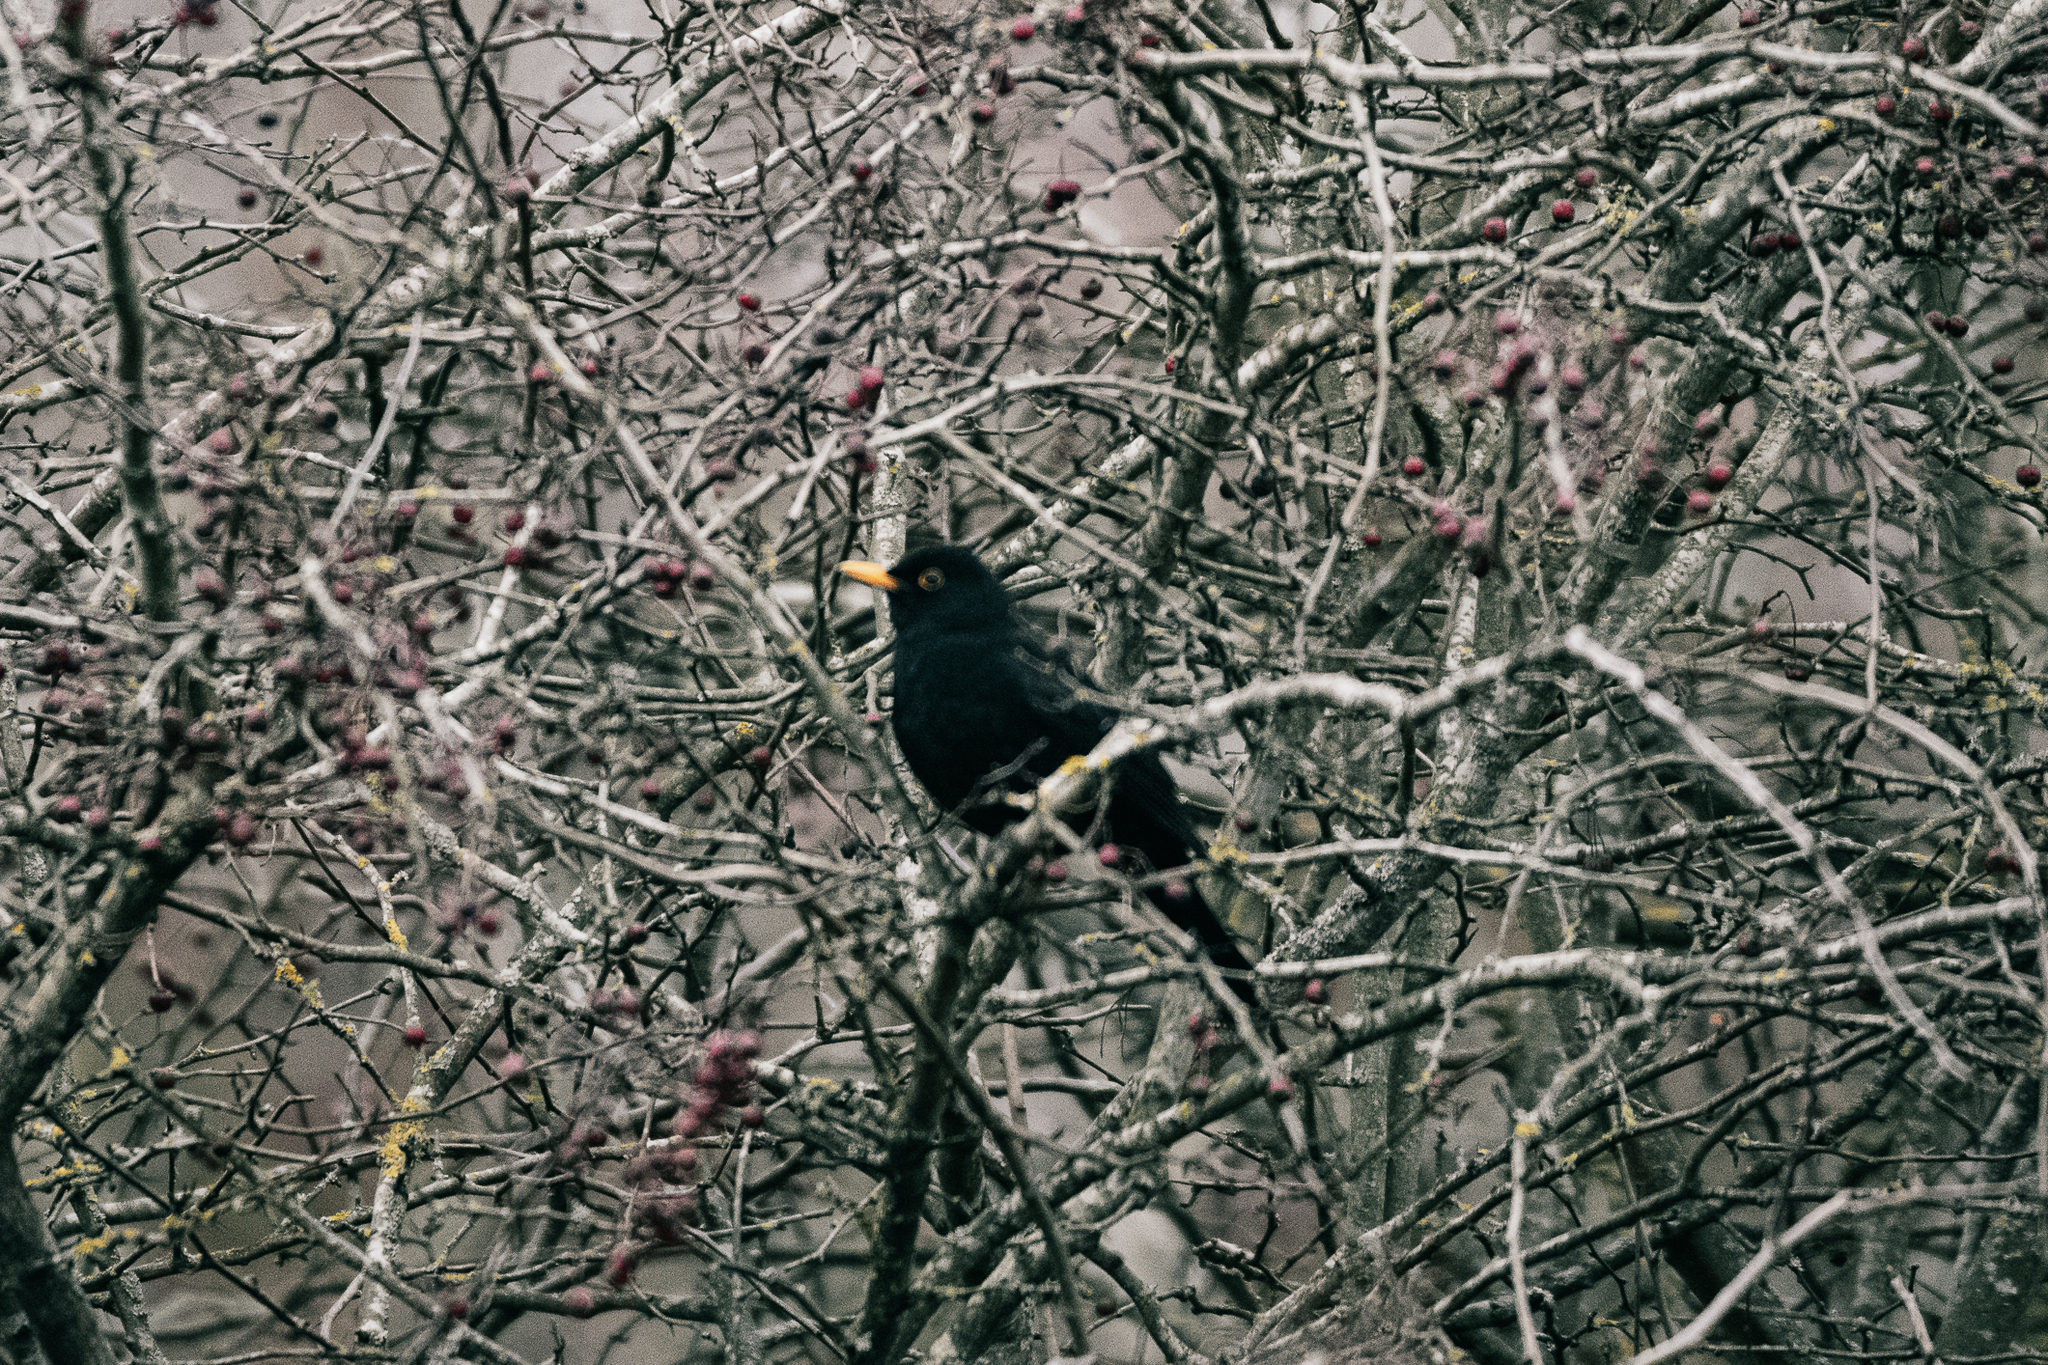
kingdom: Animalia
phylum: Chordata
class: Aves
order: Passeriformes
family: Turdidae
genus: Turdus
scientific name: Turdus merula
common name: Common blackbird
